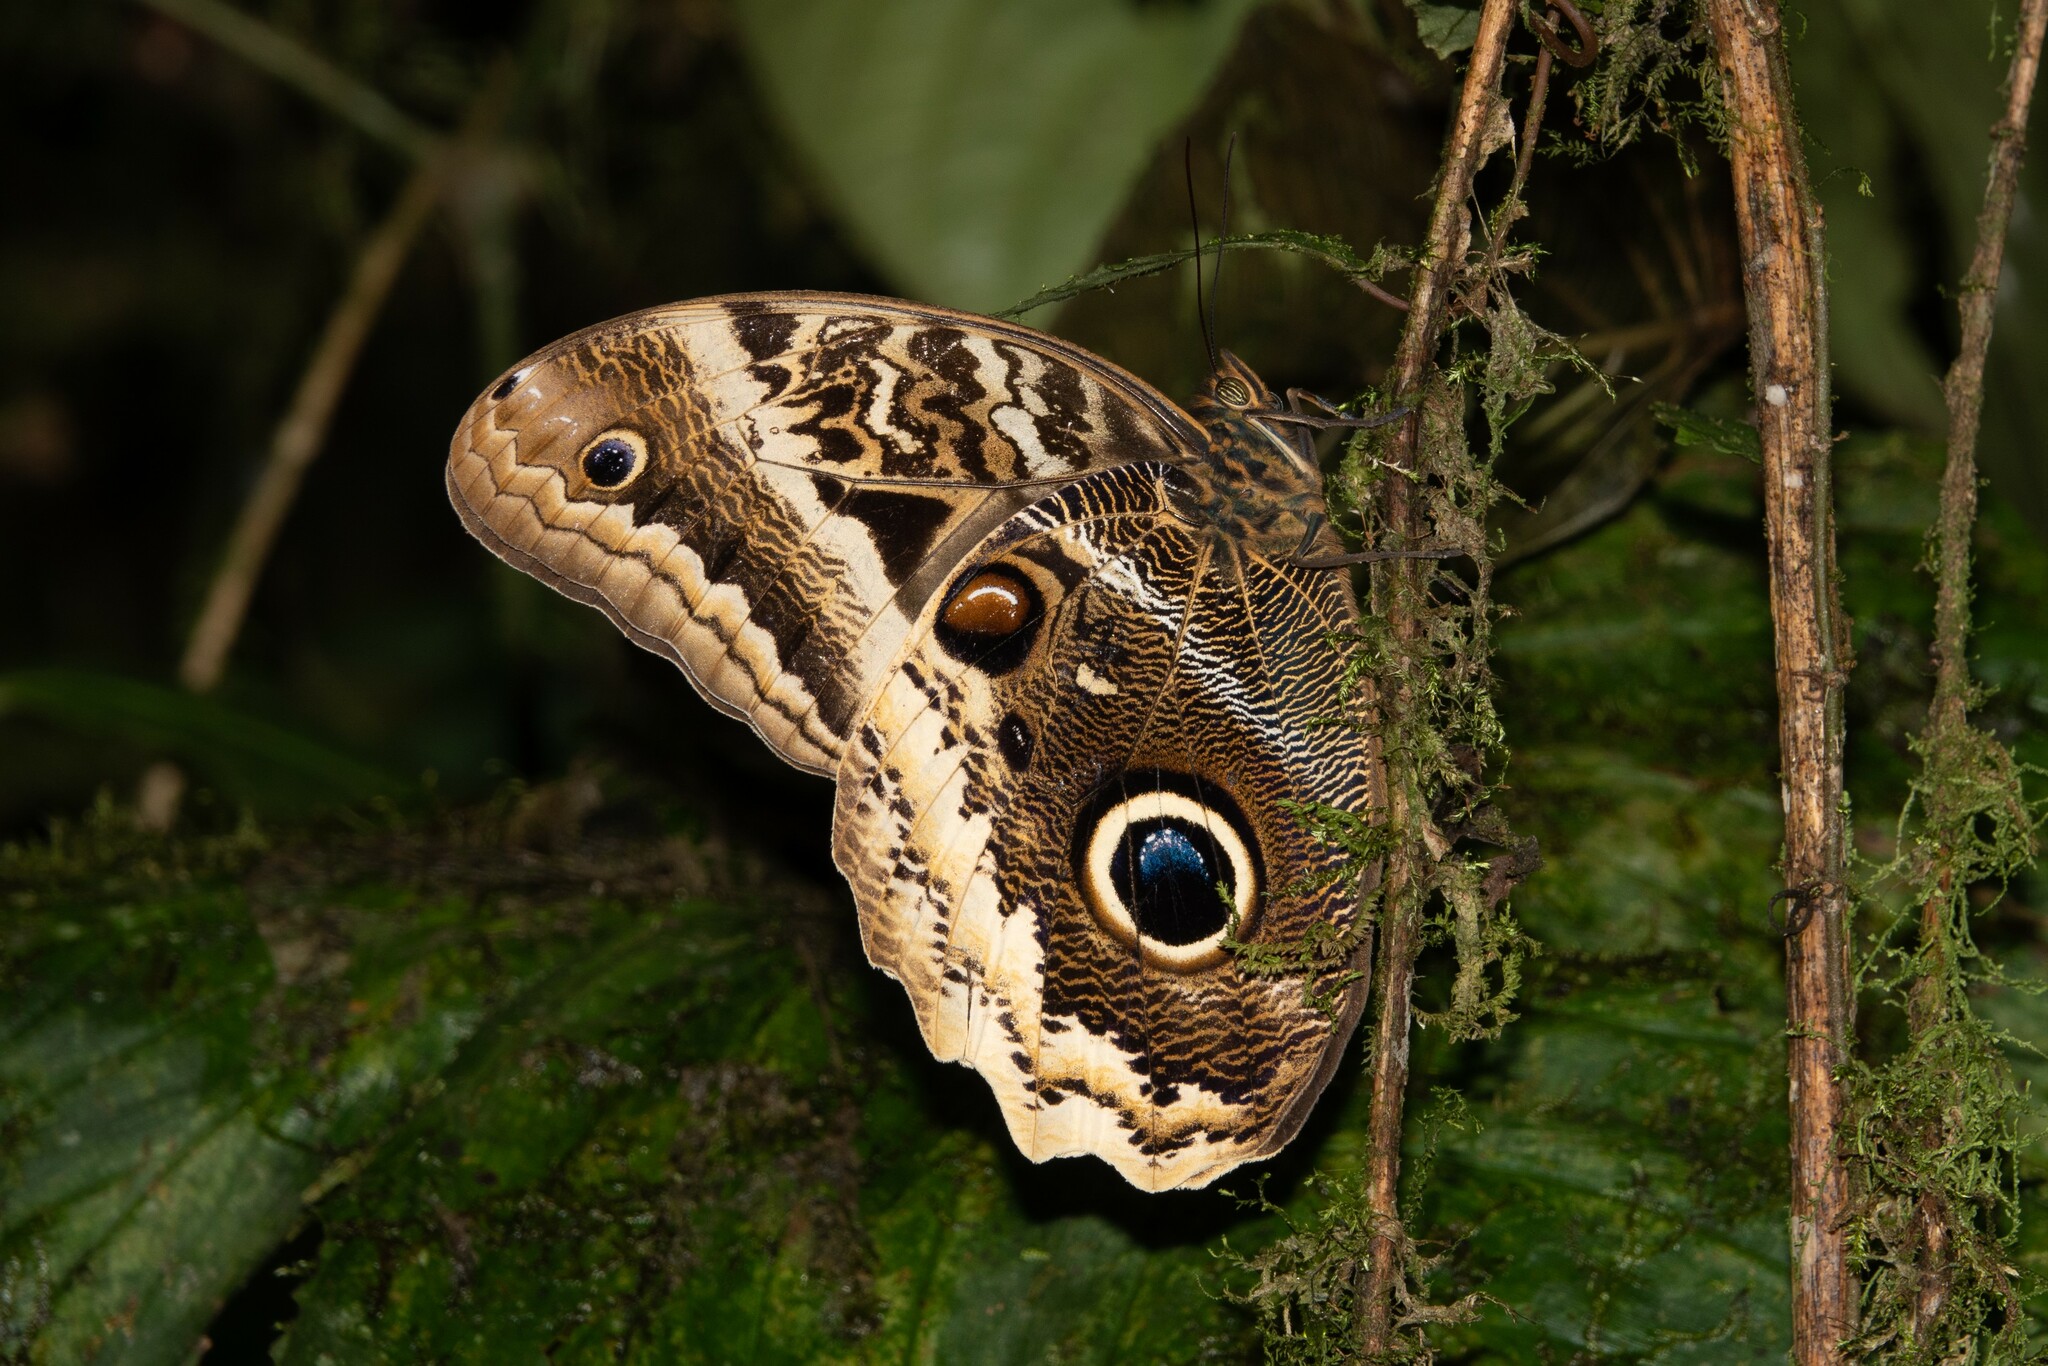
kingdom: Animalia
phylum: Arthropoda
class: Insecta
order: Lepidoptera
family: Nymphalidae
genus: Caligo
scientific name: Caligo atreus
